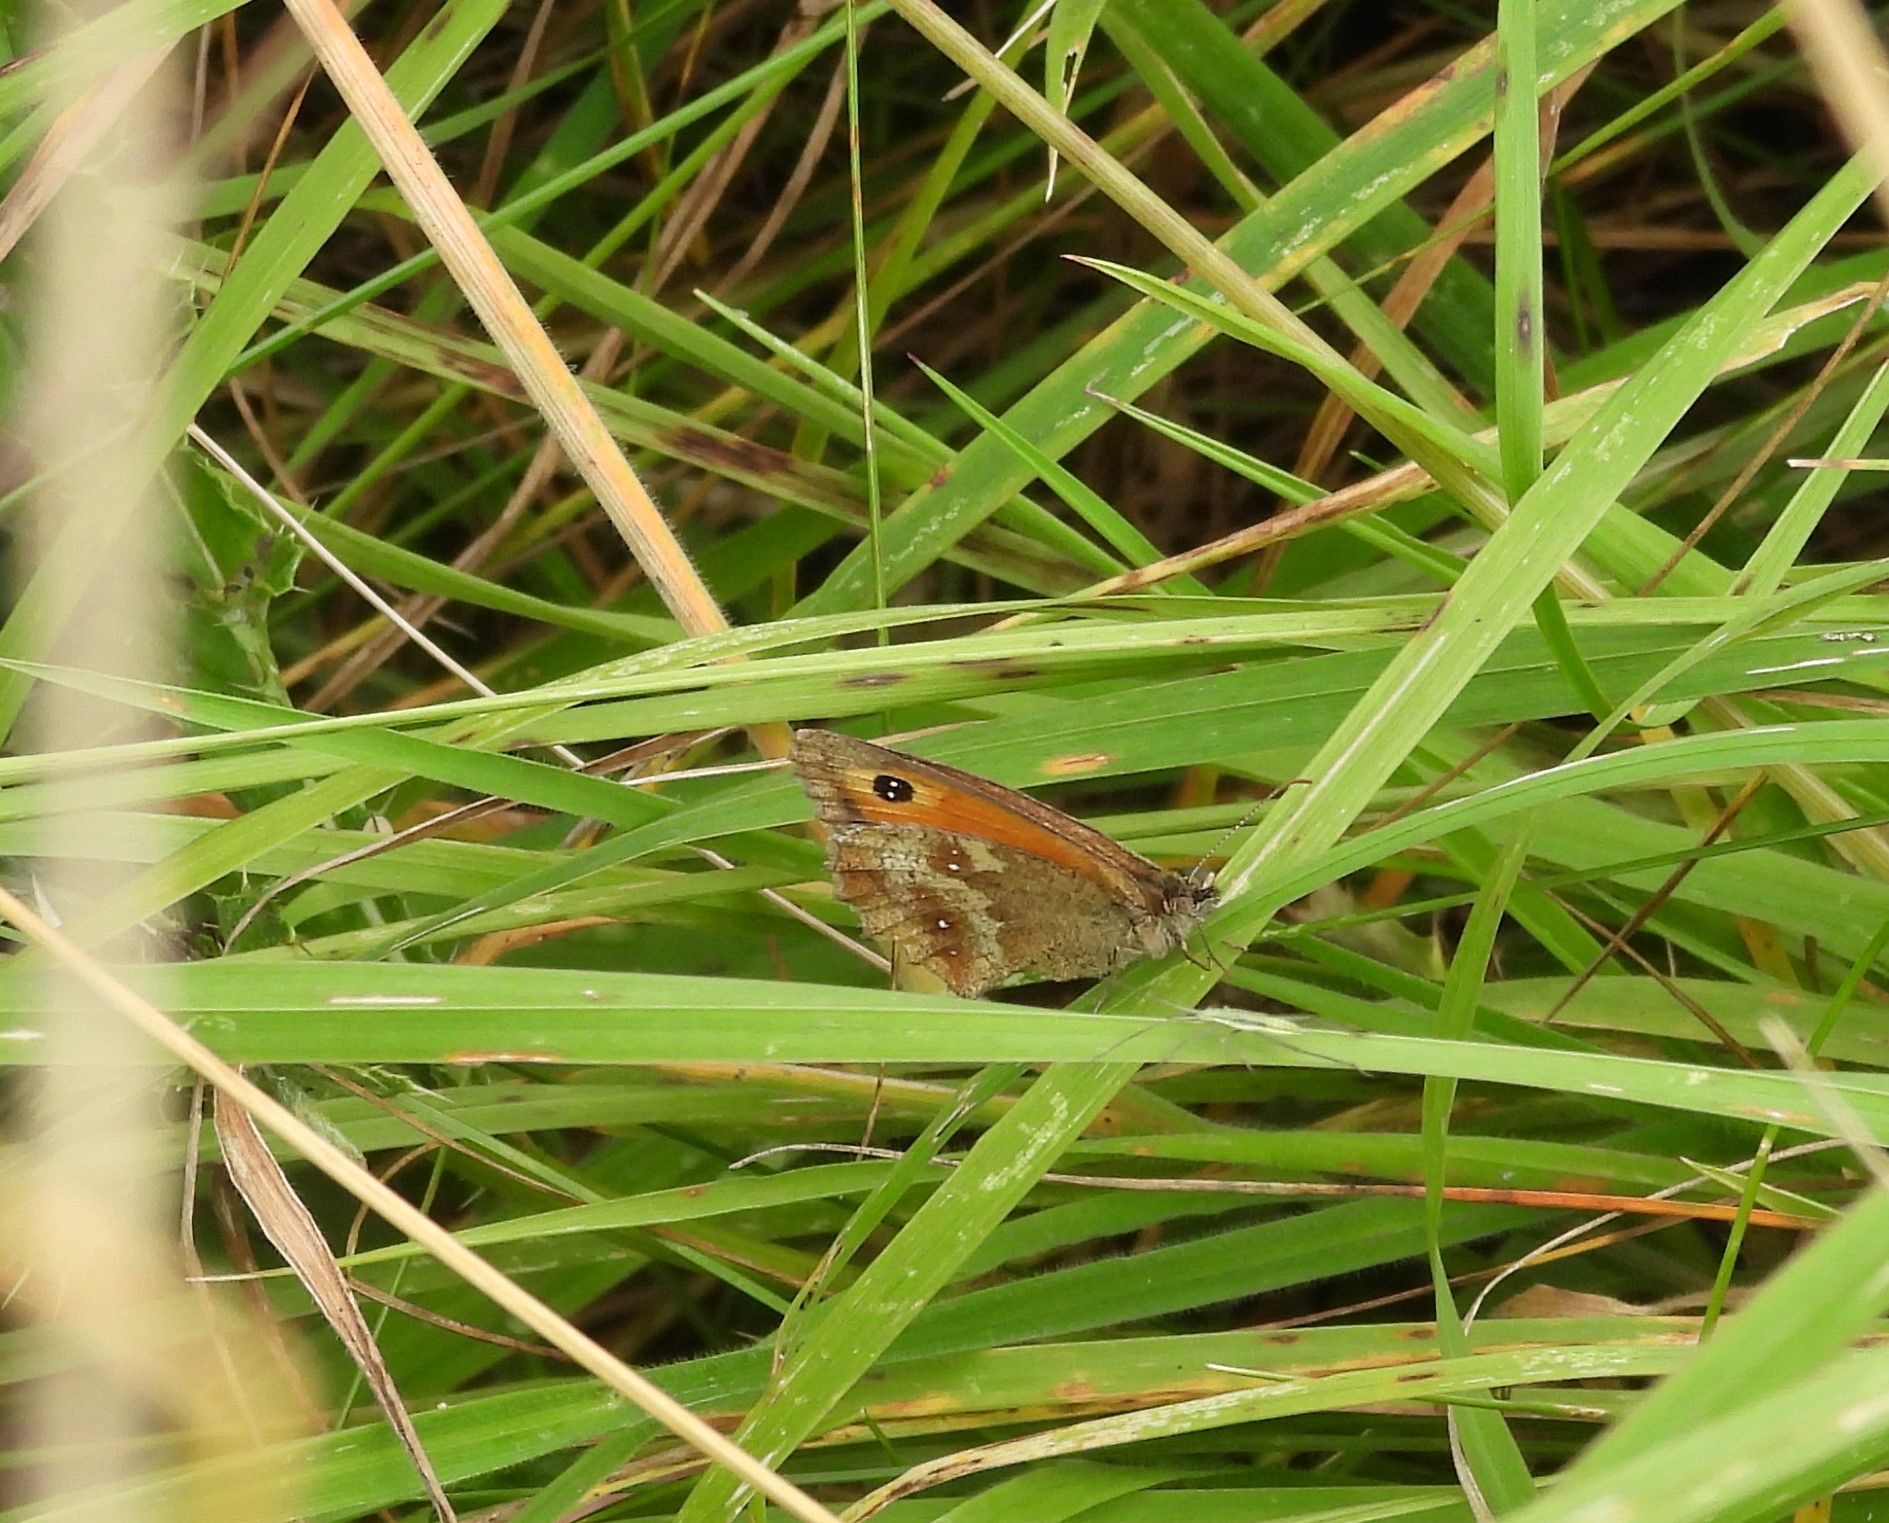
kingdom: Animalia
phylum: Arthropoda
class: Insecta
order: Lepidoptera
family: Nymphalidae
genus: Pyronia
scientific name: Pyronia tithonus
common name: Gatekeeper
